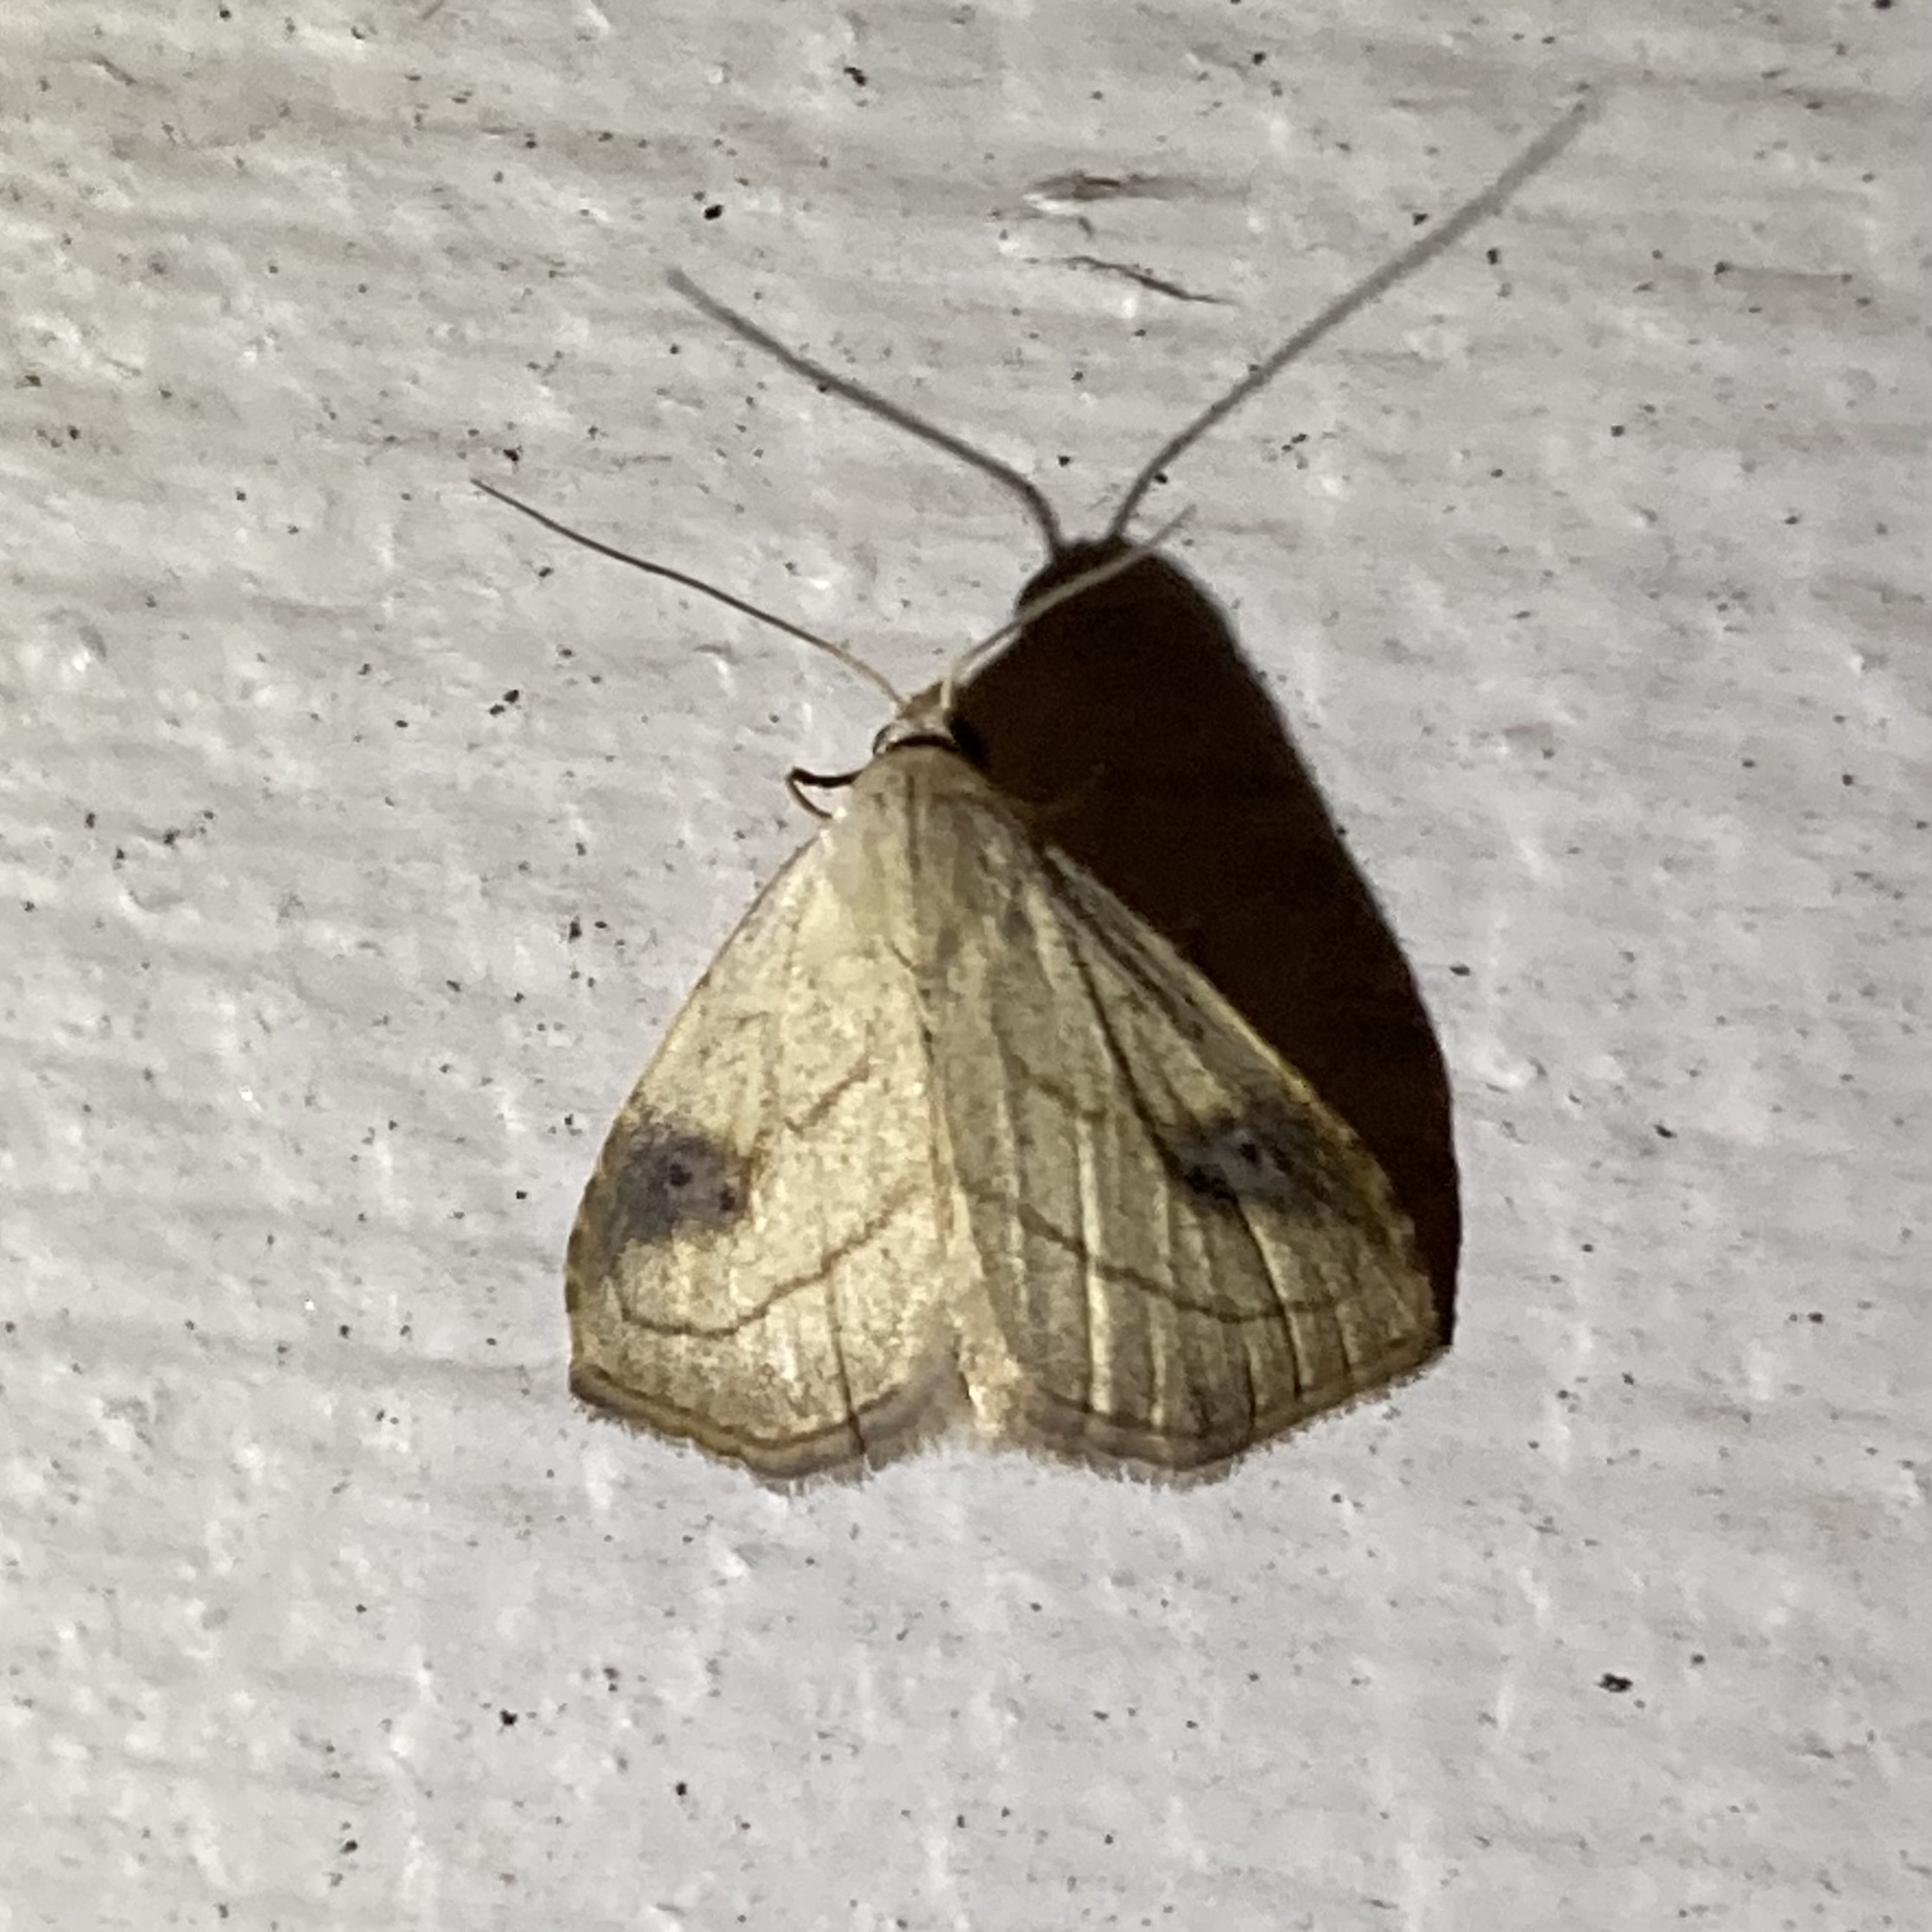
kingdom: Animalia
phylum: Arthropoda
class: Insecta
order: Lepidoptera
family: Erebidae
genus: Rivula
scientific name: Rivula propinqualis
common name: Spotted grass moth
